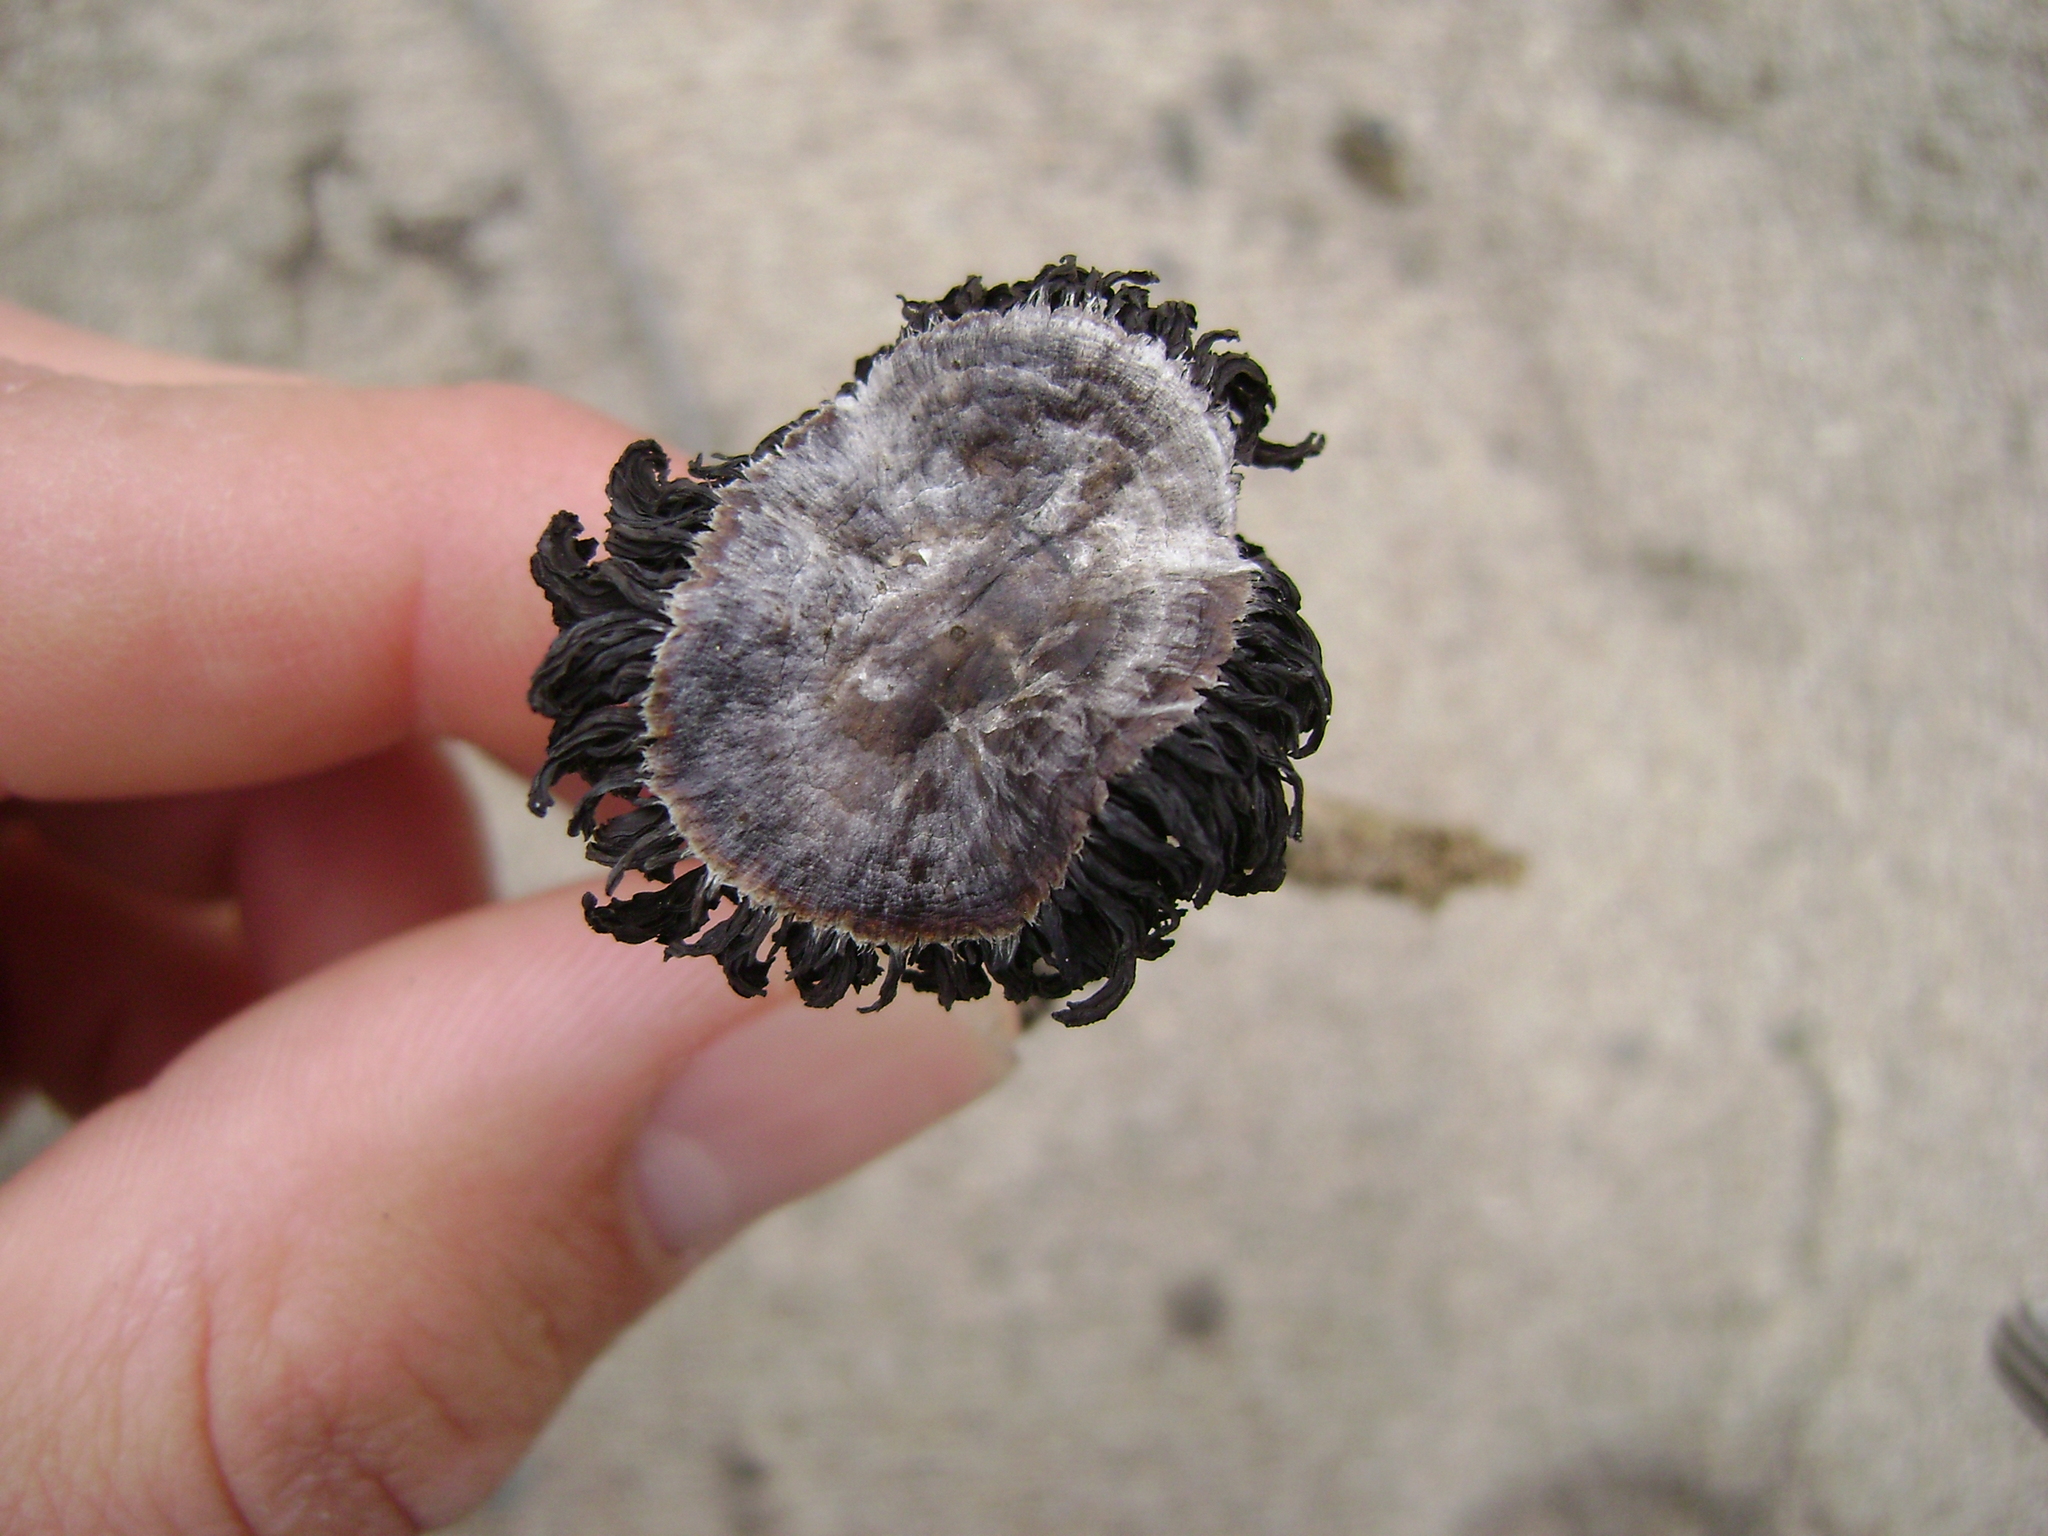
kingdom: Fungi
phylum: Basidiomycota
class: Agaricomycetes
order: Agaricales
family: Agaricaceae
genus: Agaricus
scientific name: Agaricus zelleri
